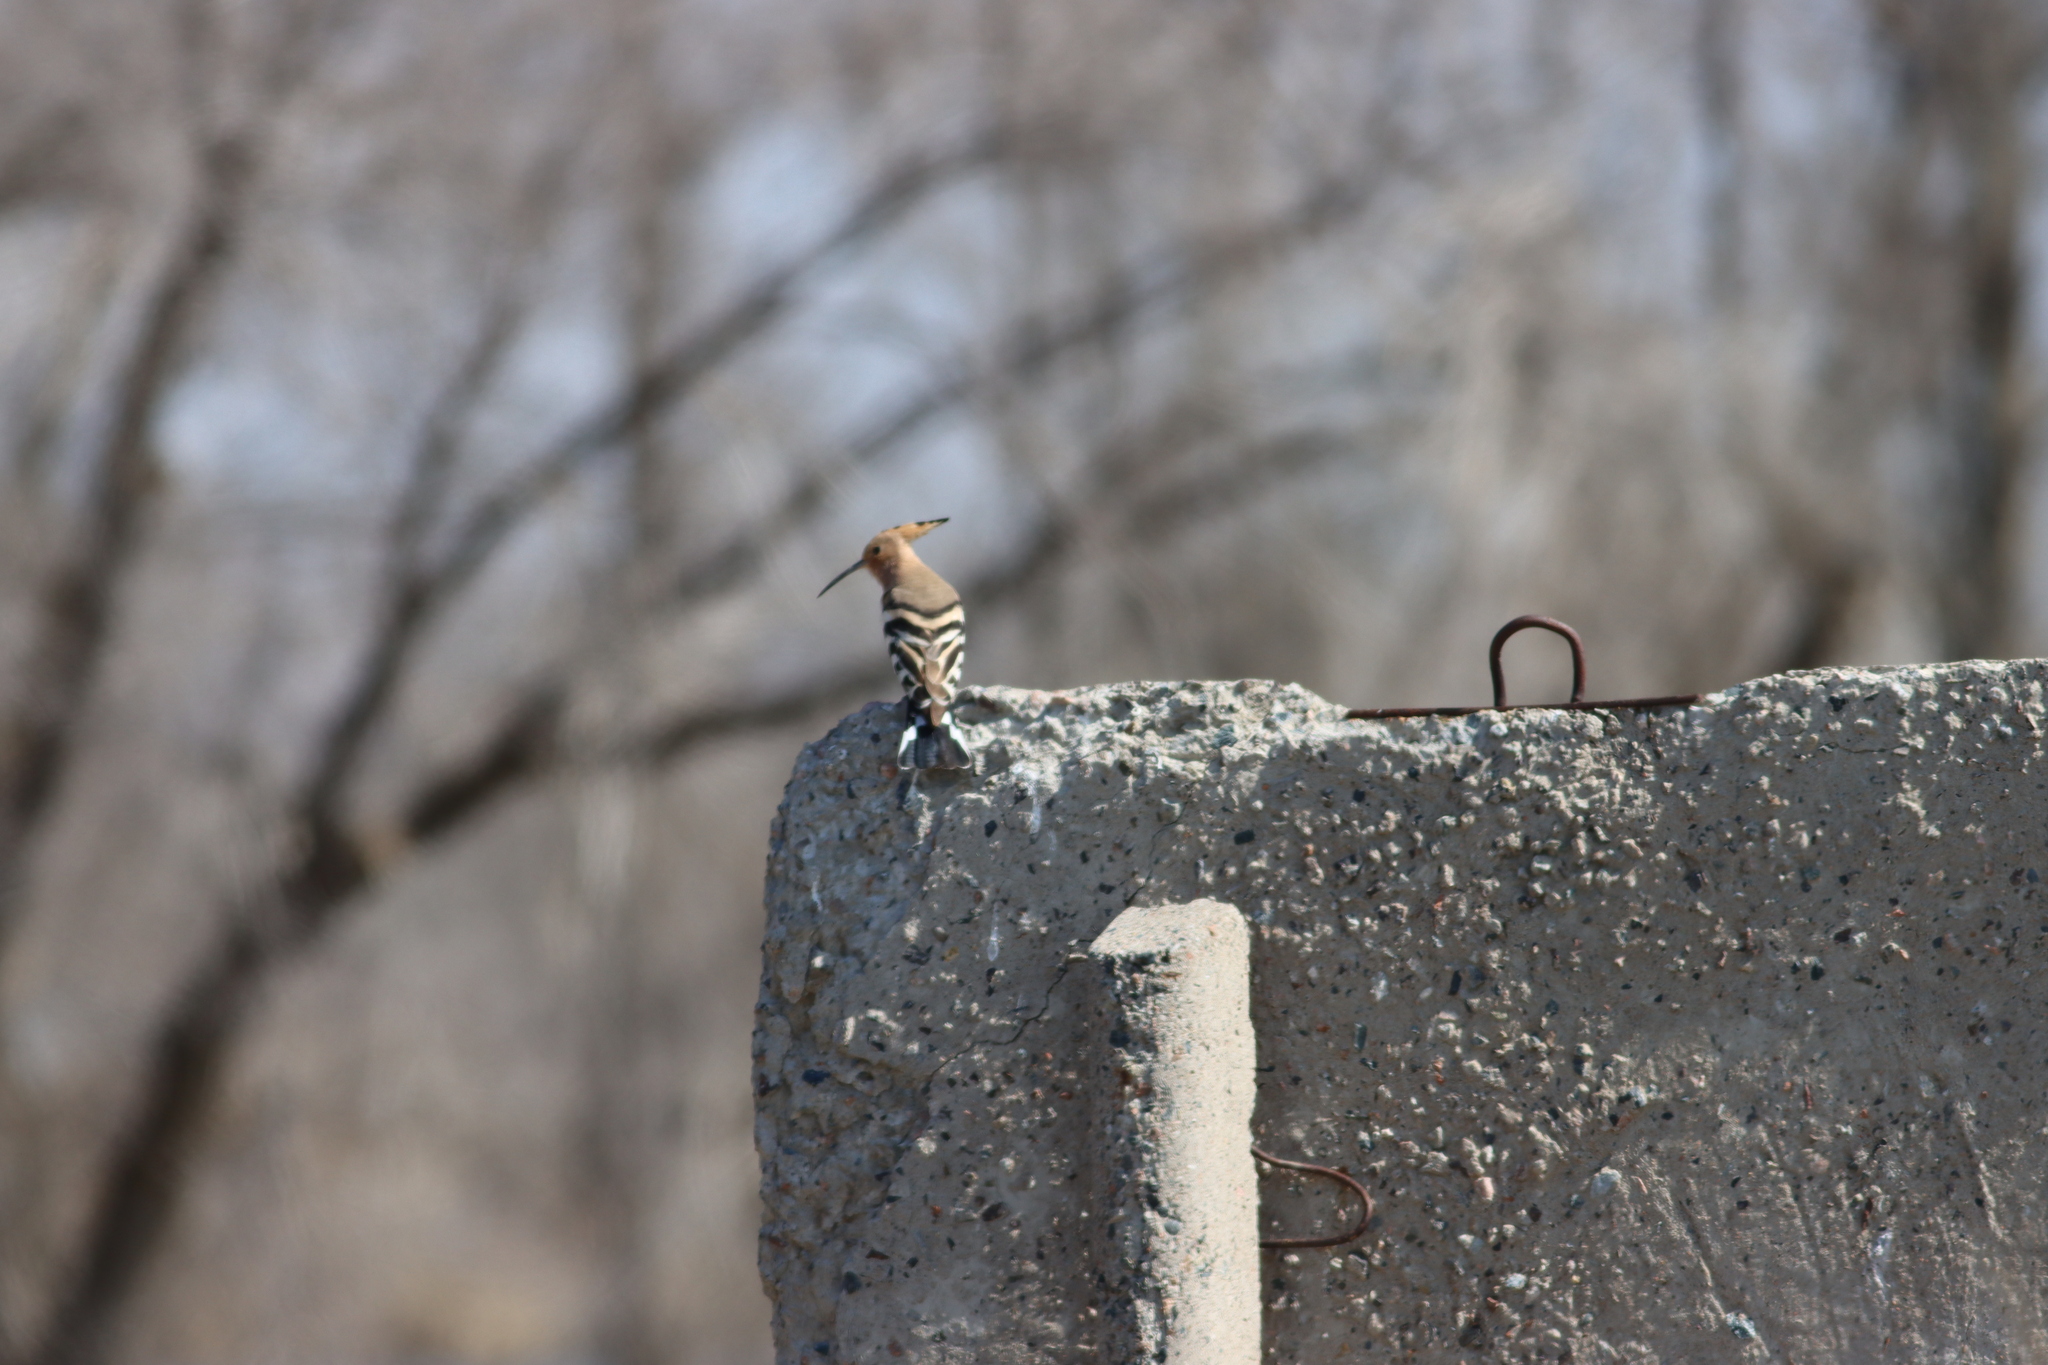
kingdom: Animalia
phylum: Chordata
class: Aves
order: Bucerotiformes
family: Upupidae
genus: Upupa
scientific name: Upupa epops
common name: Eurasian hoopoe
